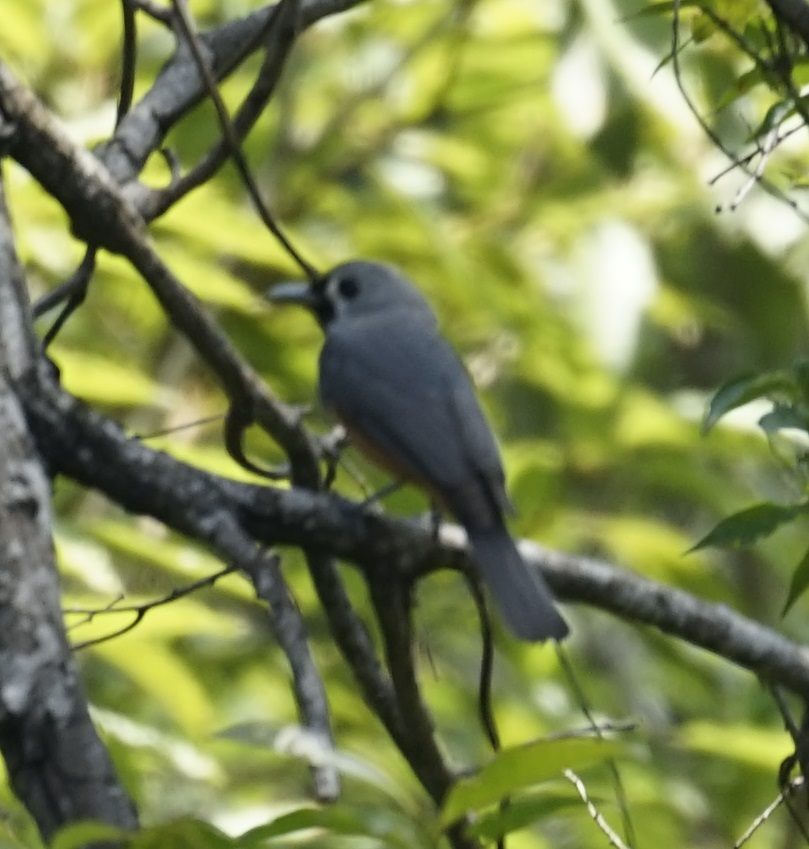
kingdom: Animalia
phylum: Chordata
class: Aves
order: Passeriformes
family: Monarchidae
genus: Monarcha
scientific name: Monarcha melanopsis
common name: Black-faced monarch
